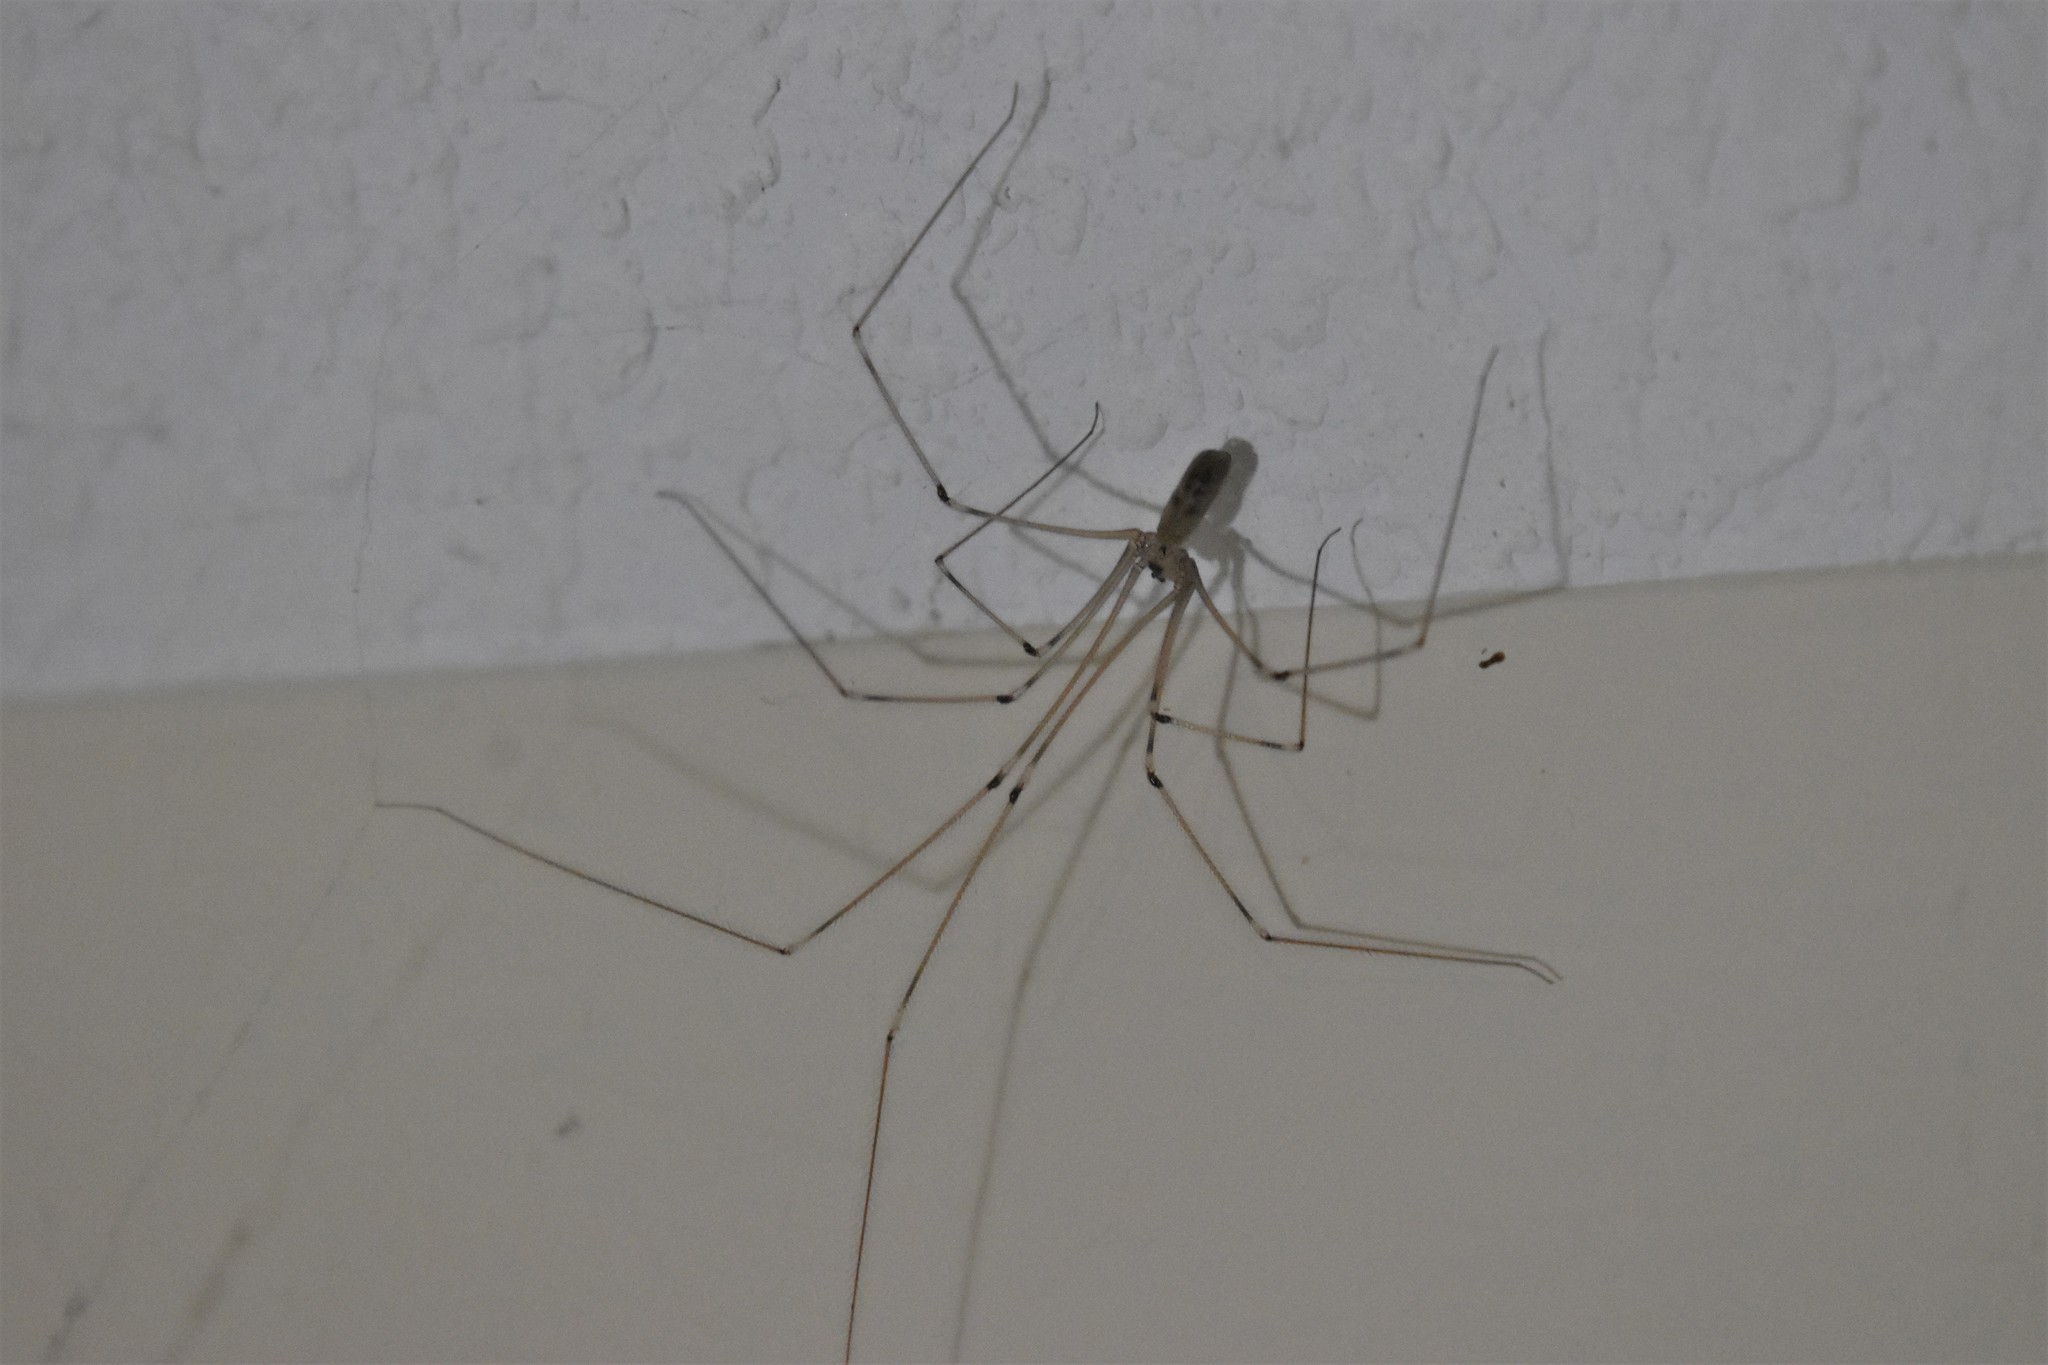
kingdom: Animalia
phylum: Arthropoda
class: Arachnida
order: Araneae
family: Pholcidae
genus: Pholcus
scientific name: Pholcus phalangioides
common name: Longbodied cellar spider
